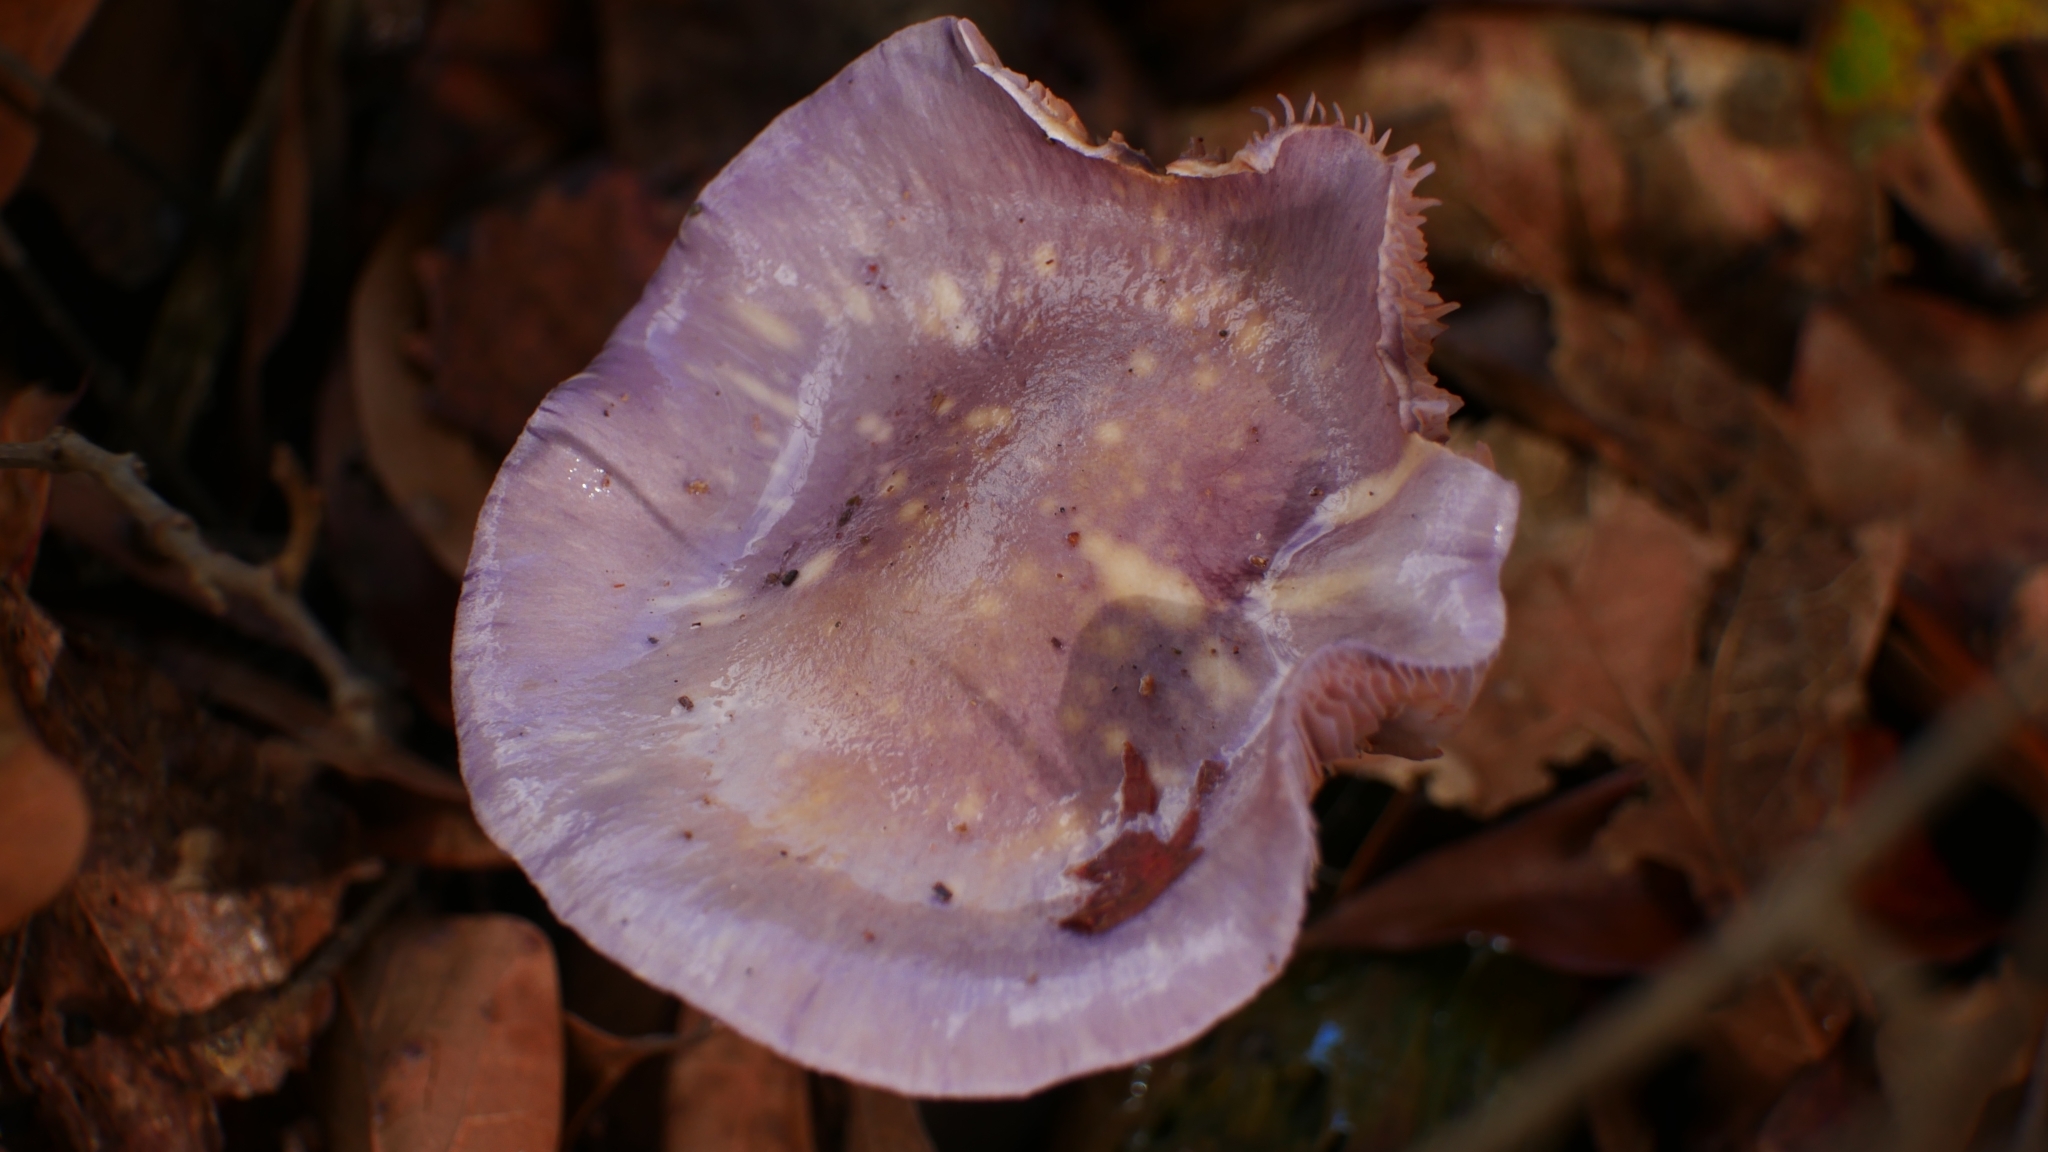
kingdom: Fungi
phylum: Basidiomycota
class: Agaricomycetes
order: Agaricales
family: Cortinariaceae
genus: Cortinarius
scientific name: Cortinarius iodes
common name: Viscid violet cort
